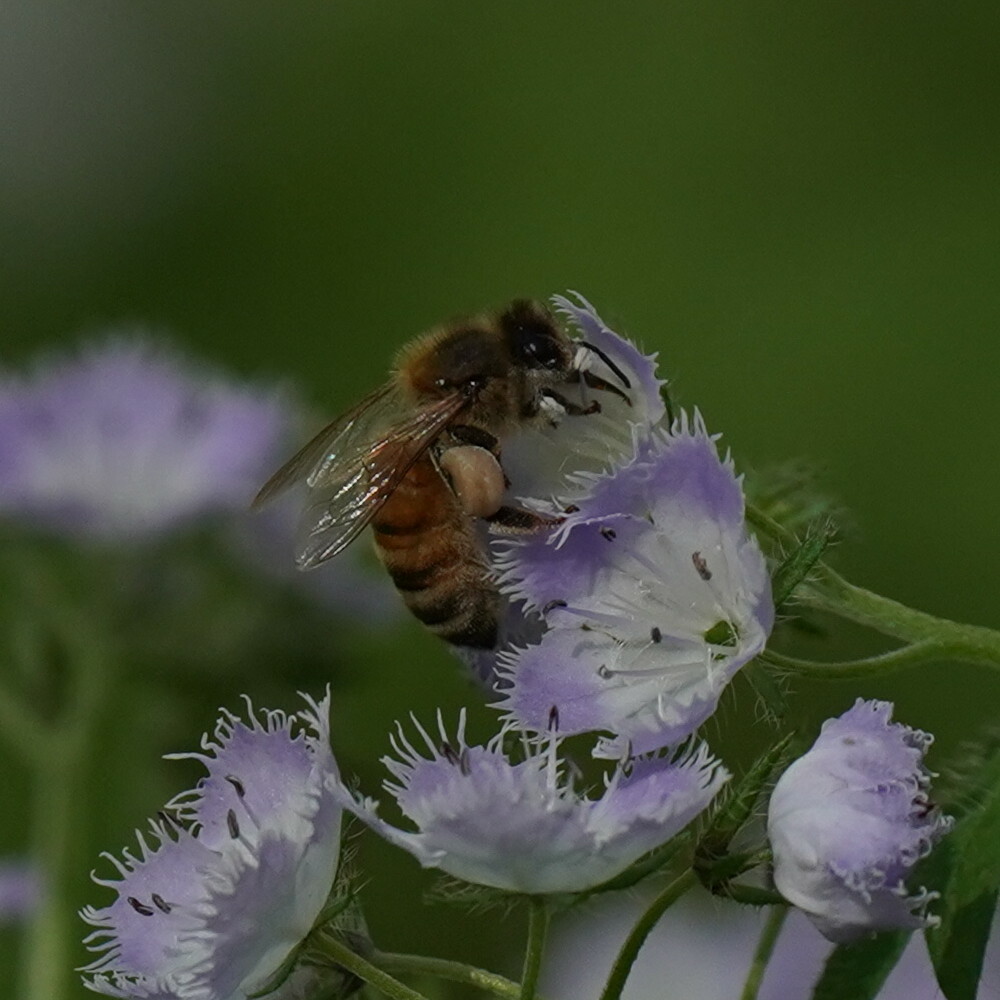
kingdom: Animalia
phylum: Arthropoda
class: Insecta
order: Hymenoptera
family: Apidae
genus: Apis
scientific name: Apis mellifera
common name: Honey bee
